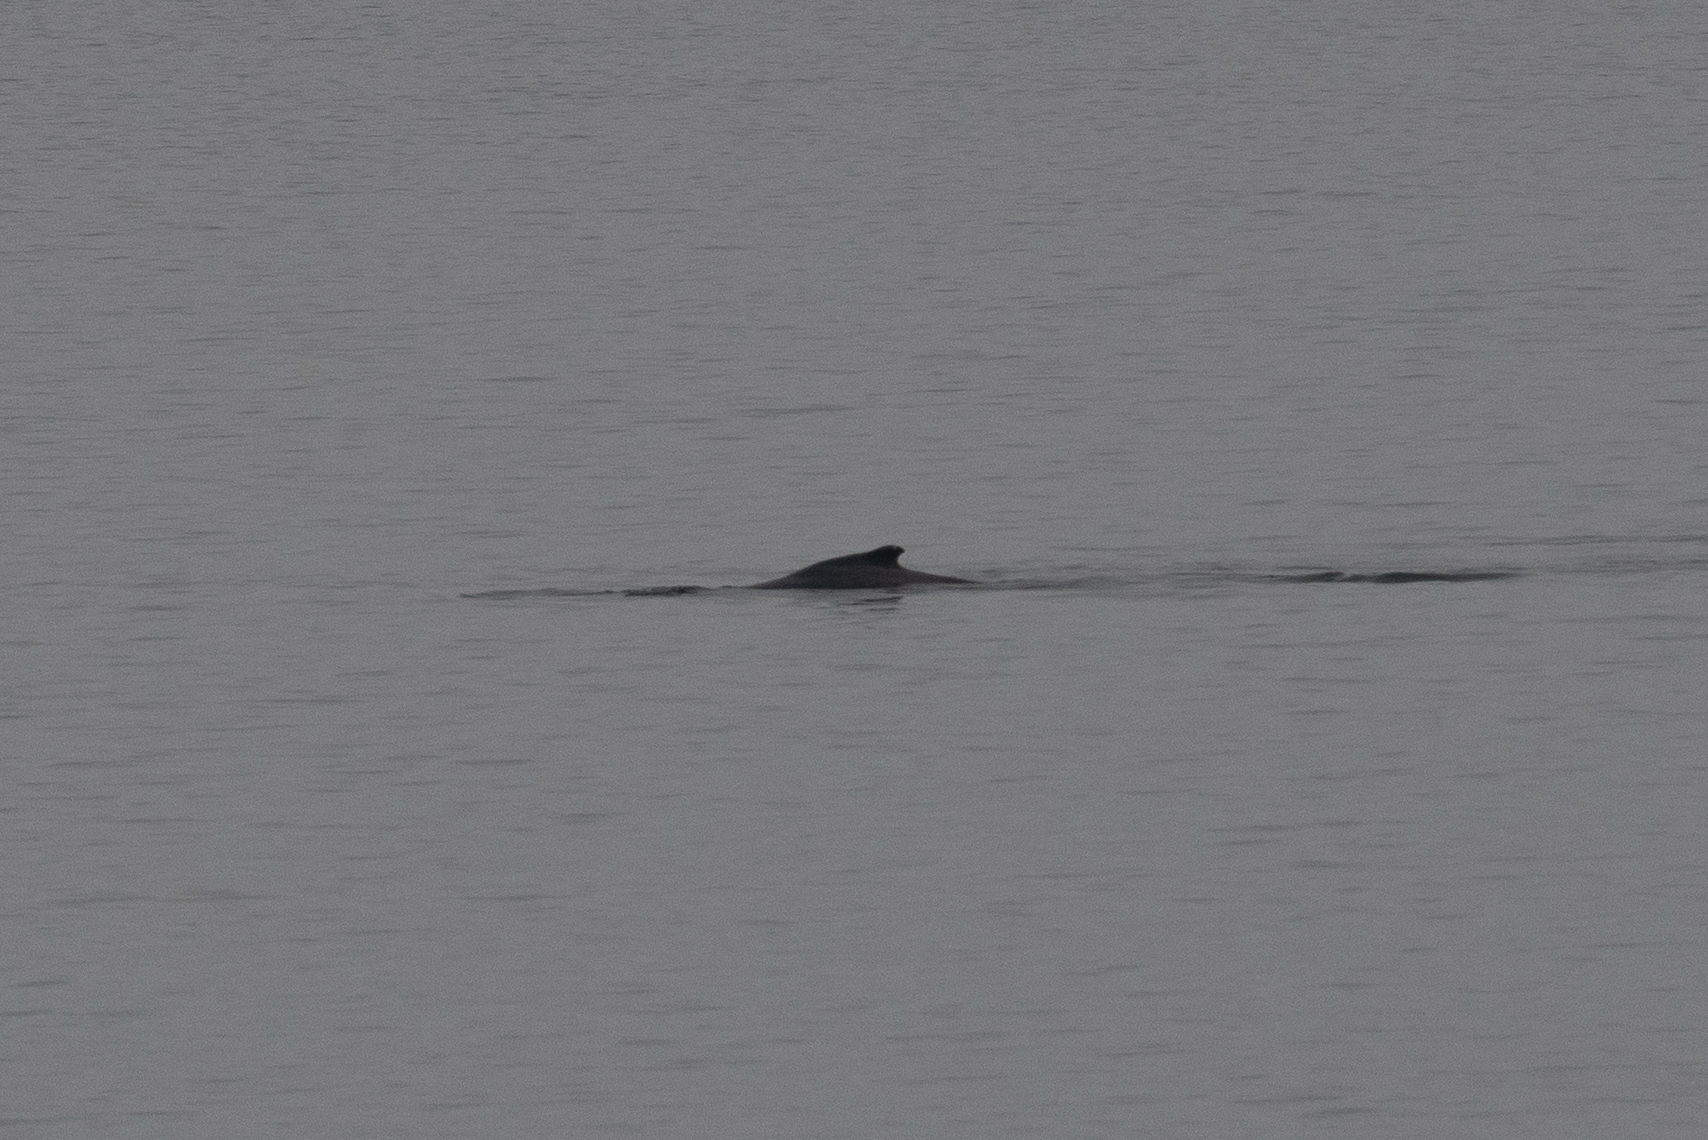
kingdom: Animalia
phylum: Chordata
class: Mammalia
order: Cetacea
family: Balaenopteridae
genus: Megaptera
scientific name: Megaptera novaeangliae
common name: Humpback whale
